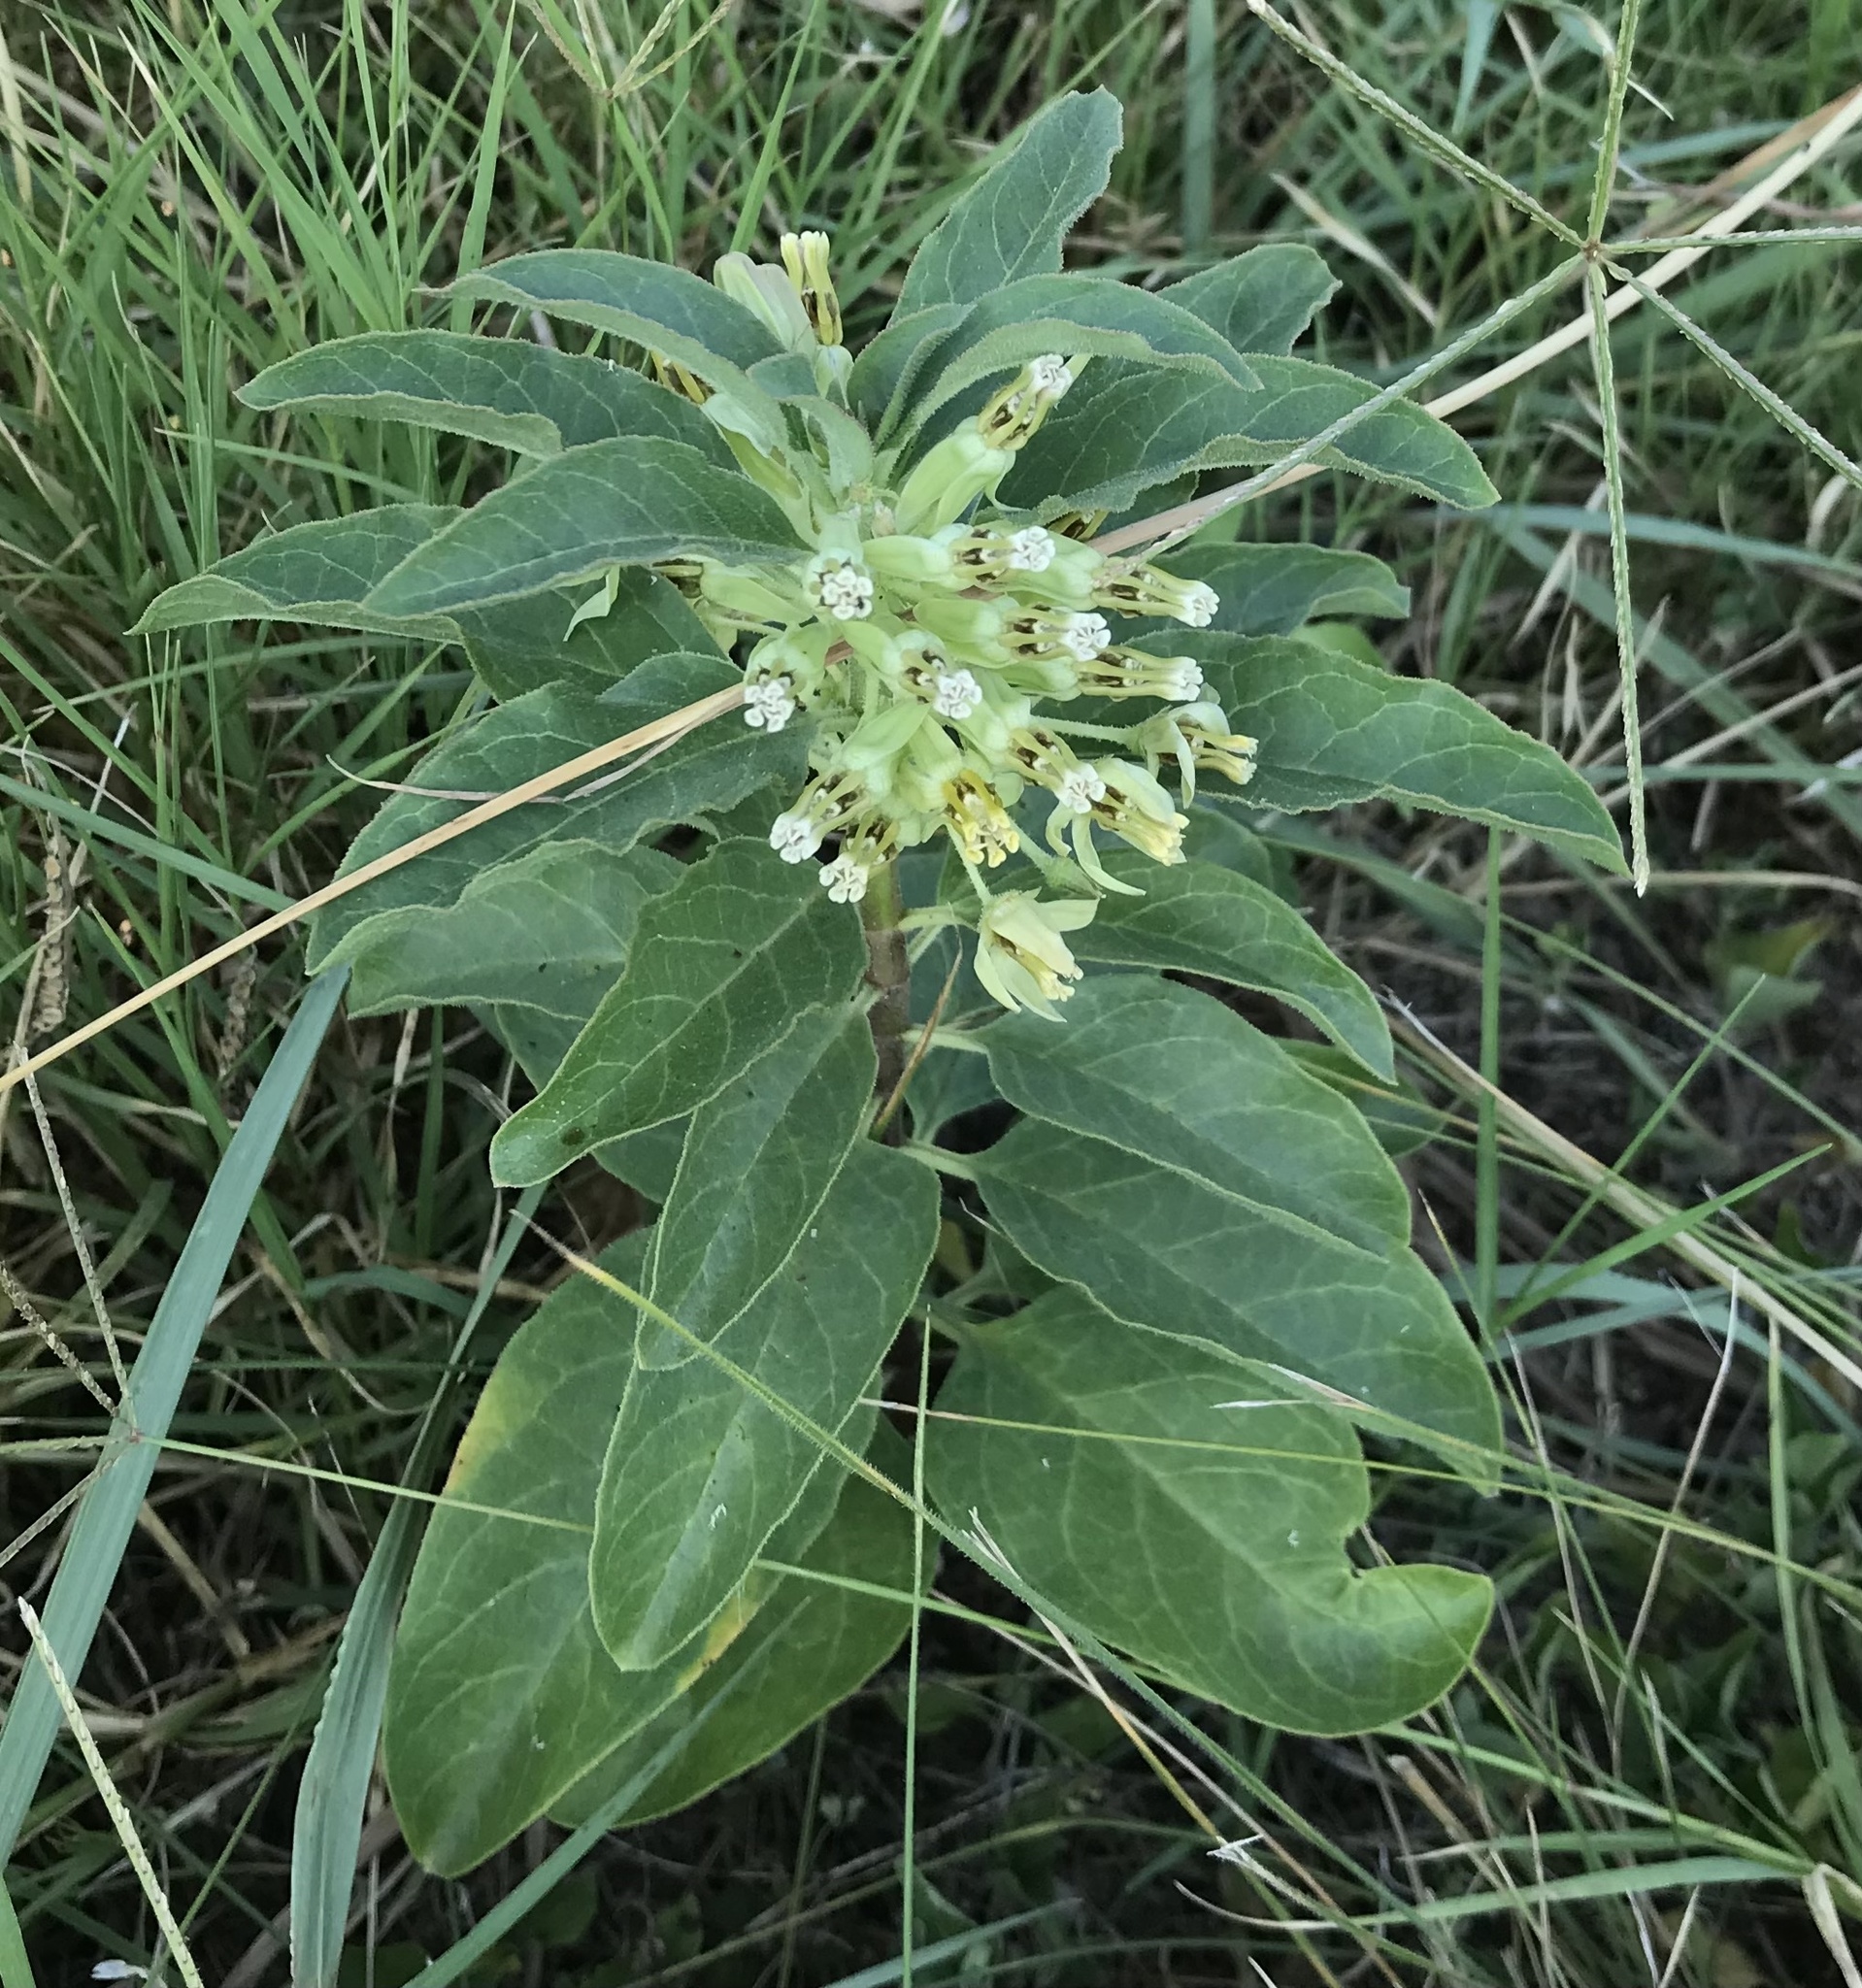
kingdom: Plantae
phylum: Tracheophyta
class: Magnoliopsida
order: Gentianales
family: Apocynaceae
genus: Asclepias
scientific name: Asclepias oenotheroides
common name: Zizotes milkweed
